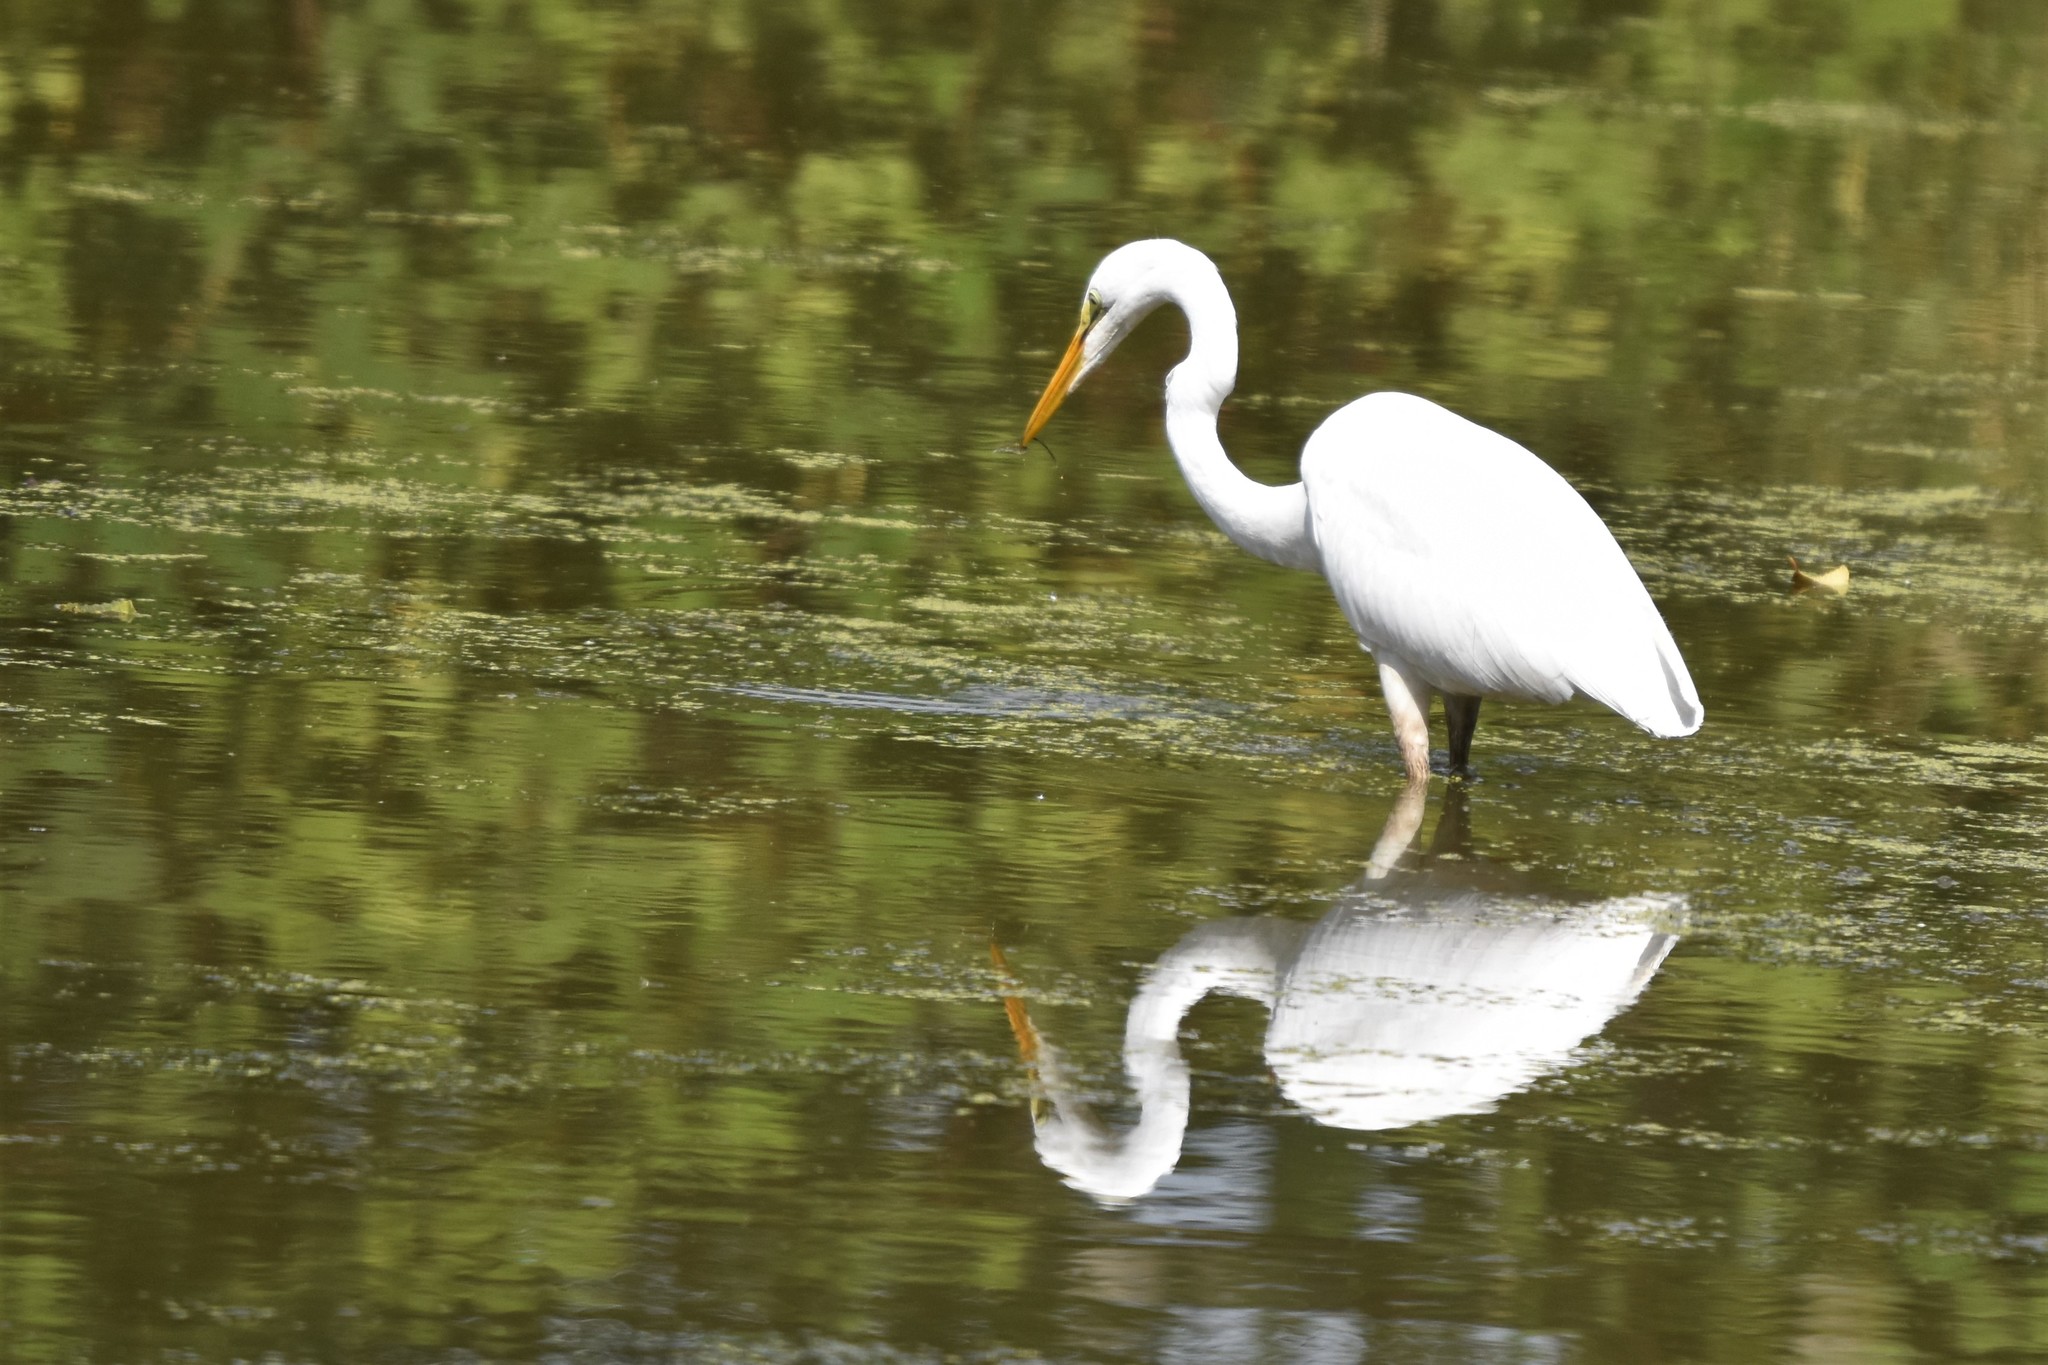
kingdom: Animalia
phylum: Chordata
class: Aves
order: Pelecaniformes
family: Ardeidae
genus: Ardea
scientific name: Ardea alba
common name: Great egret
